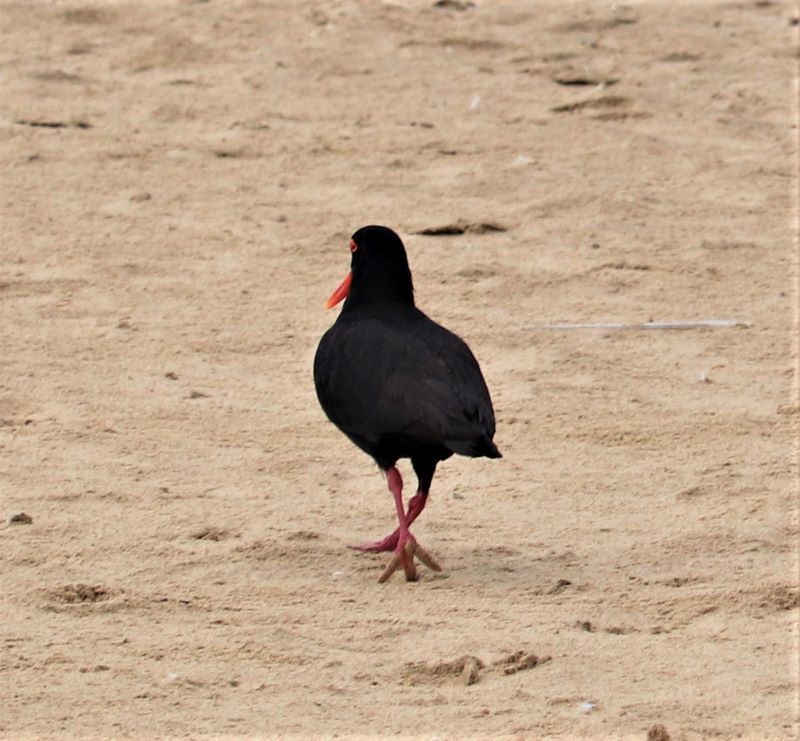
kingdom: Animalia
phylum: Chordata
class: Aves
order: Charadriiformes
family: Haematopodidae
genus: Haematopus
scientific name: Haematopus moquini
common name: African oystercatcher
